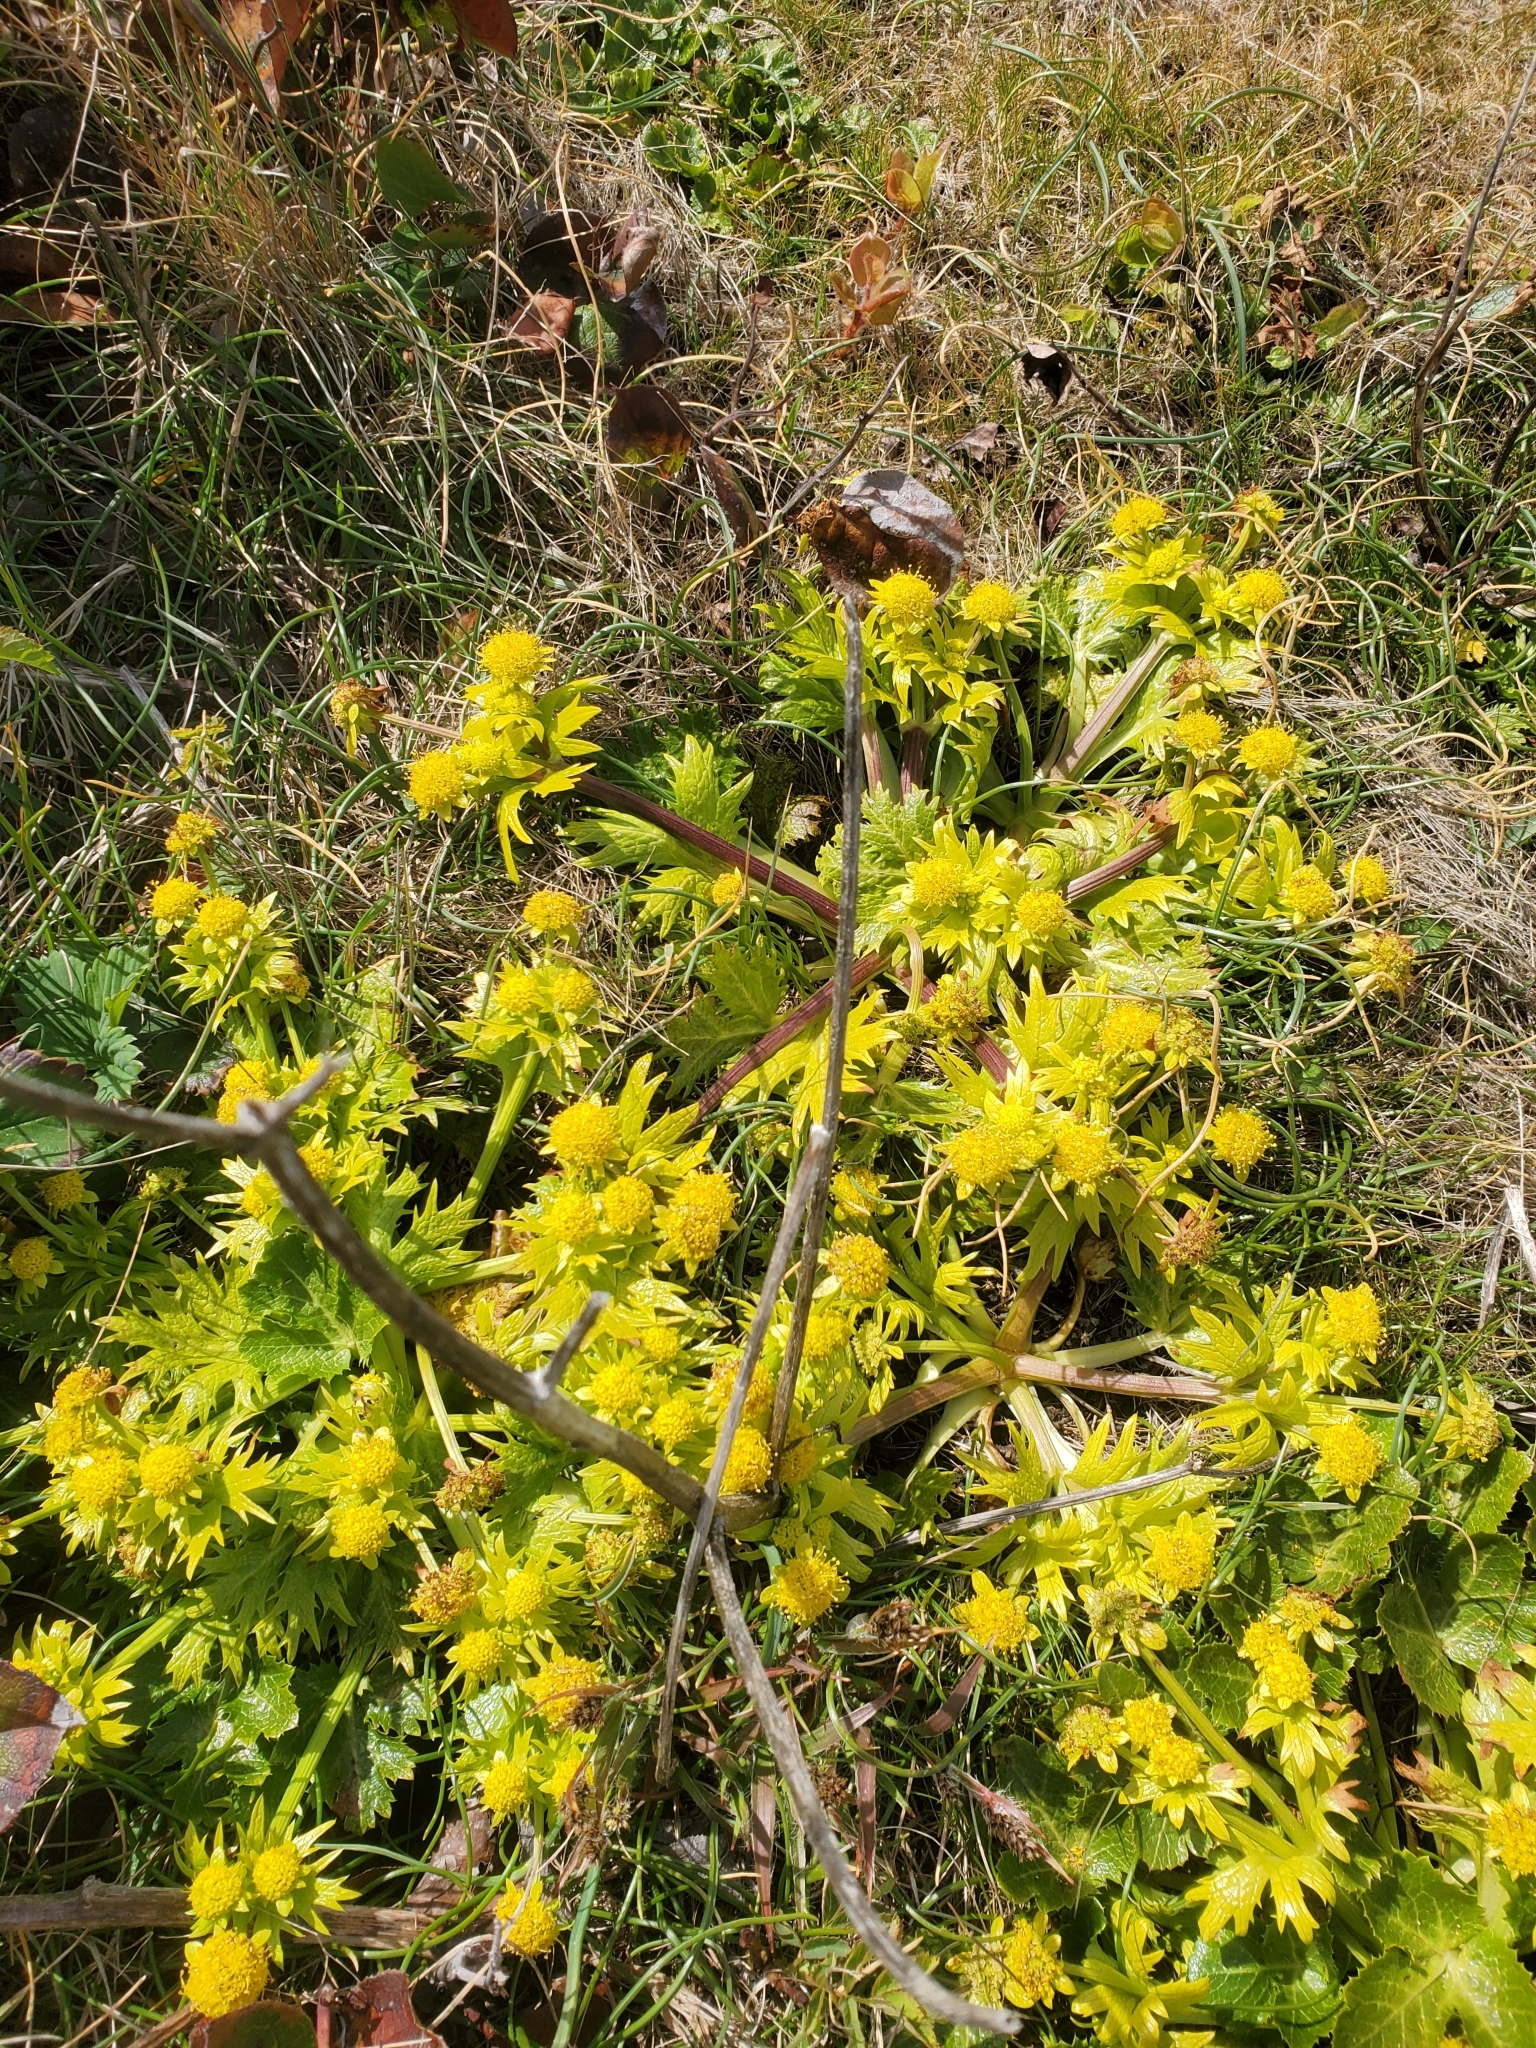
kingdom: Plantae
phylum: Tracheophyta
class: Magnoliopsida
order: Apiales
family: Apiaceae
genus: Sanicula
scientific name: Sanicula arctopoides
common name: Footsteps-of-spring
